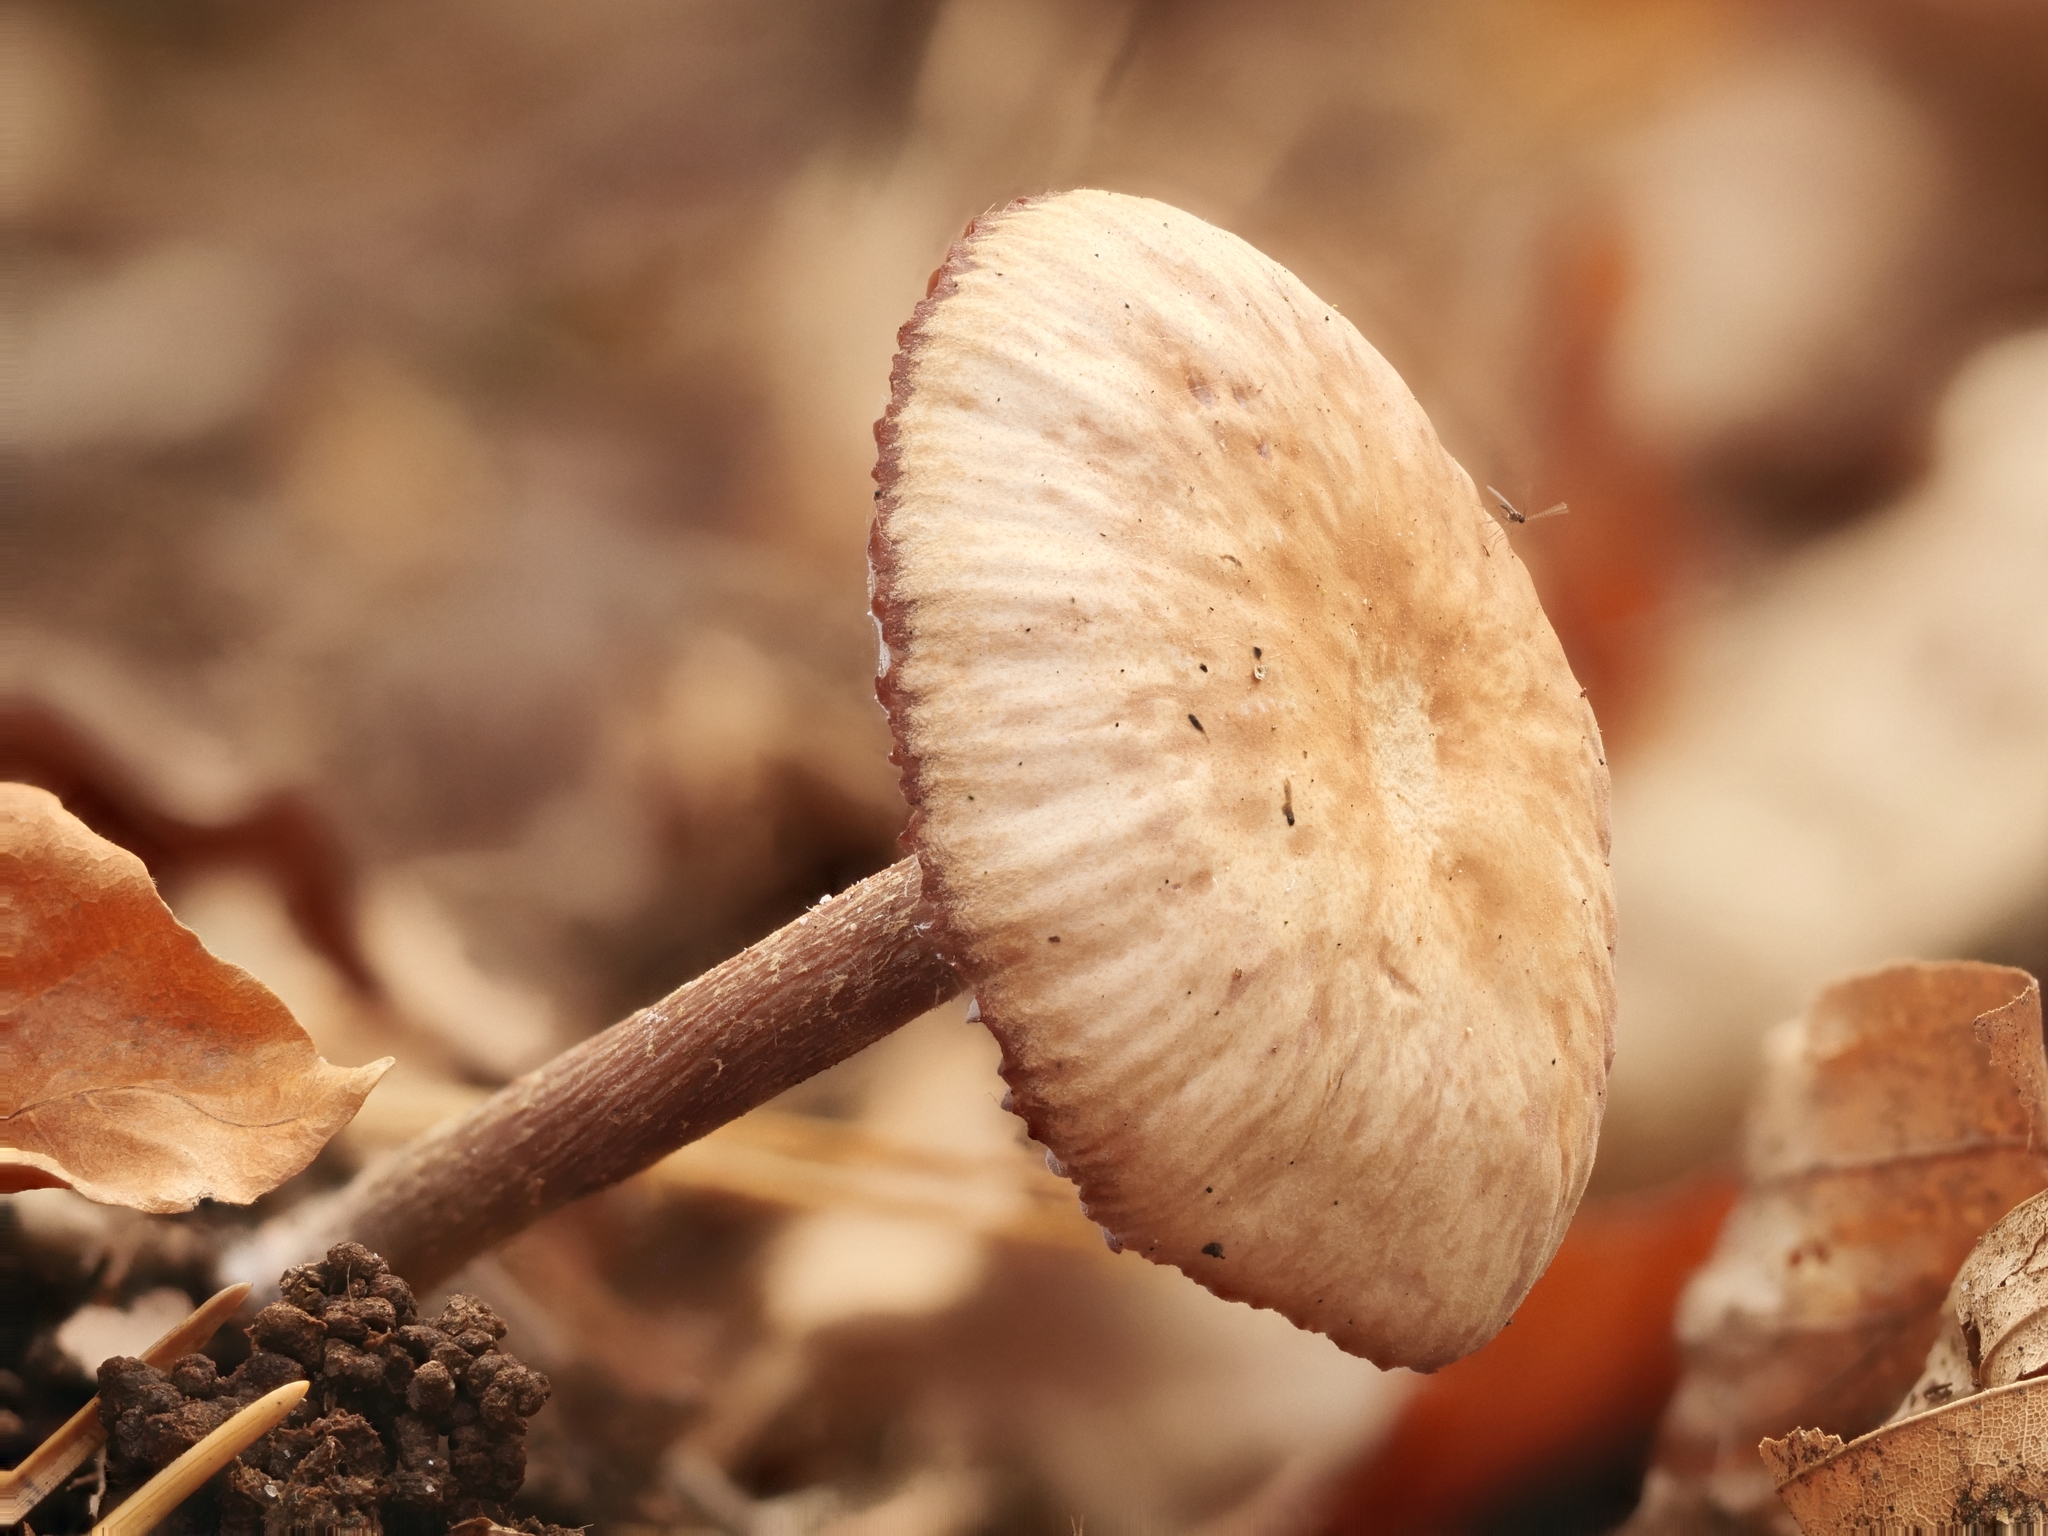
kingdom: Fungi
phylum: Basidiomycota
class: Agaricomycetes
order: Agaricales
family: Hydnangiaceae
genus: Laccaria
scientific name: Laccaria amethystina
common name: Amethyst deceiver
